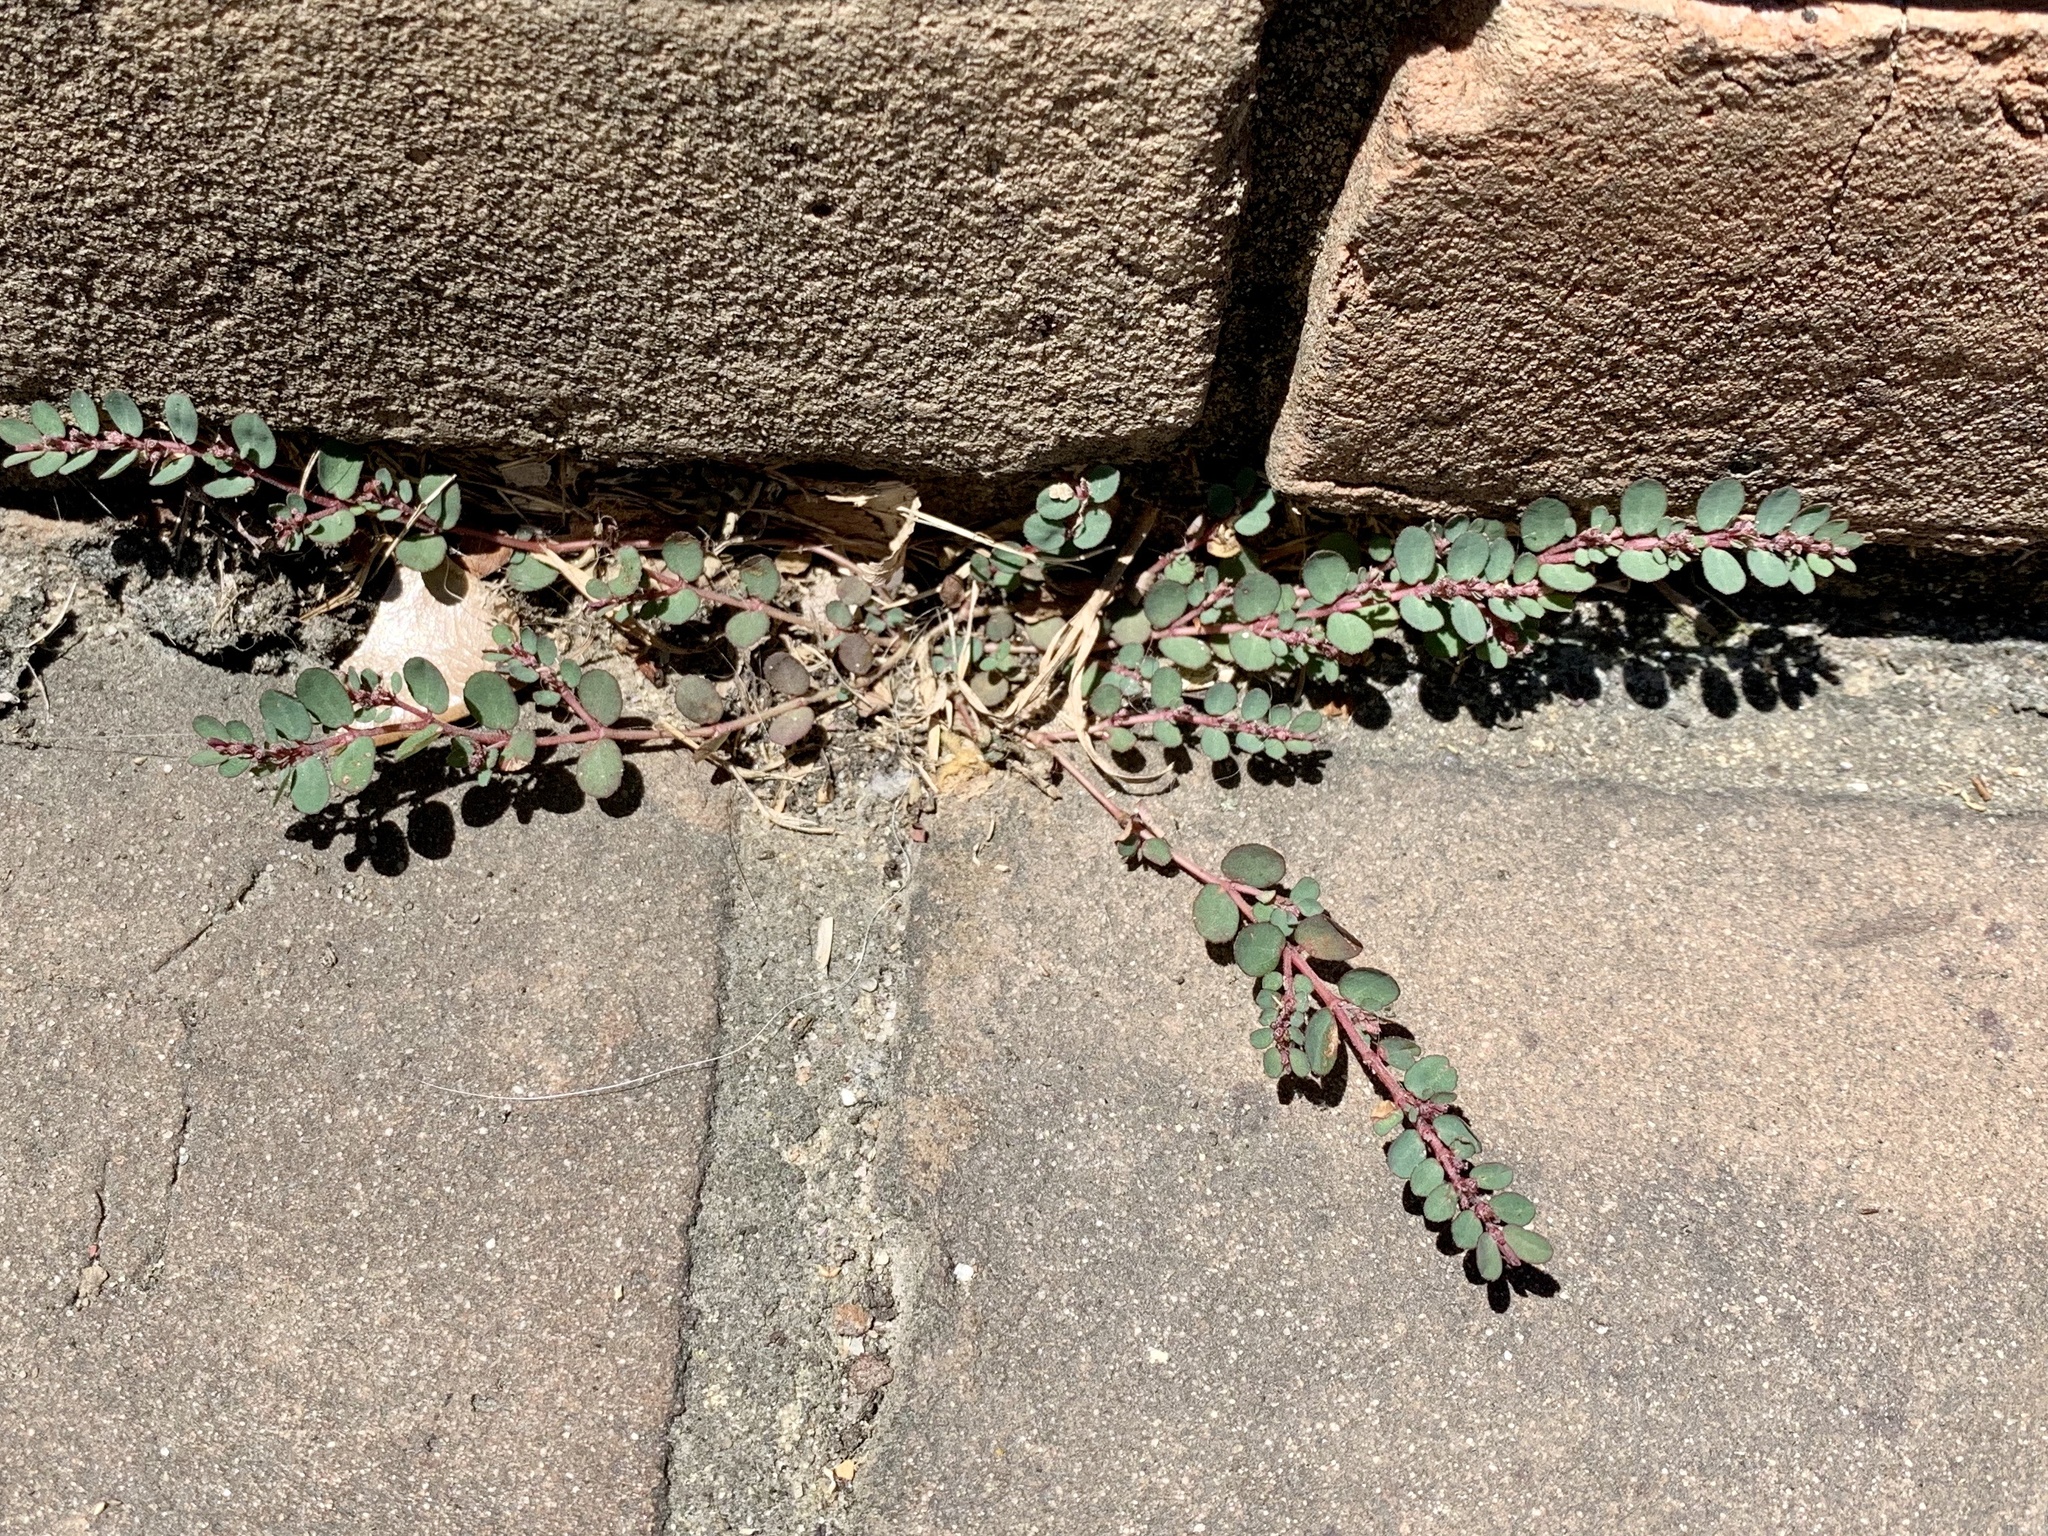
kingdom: Plantae
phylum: Tracheophyta
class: Magnoliopsida
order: Malpighiales
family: Euphorbiaceae
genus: Euphorbia
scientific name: Euphorbia prostrata
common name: Prostrate sandmat
